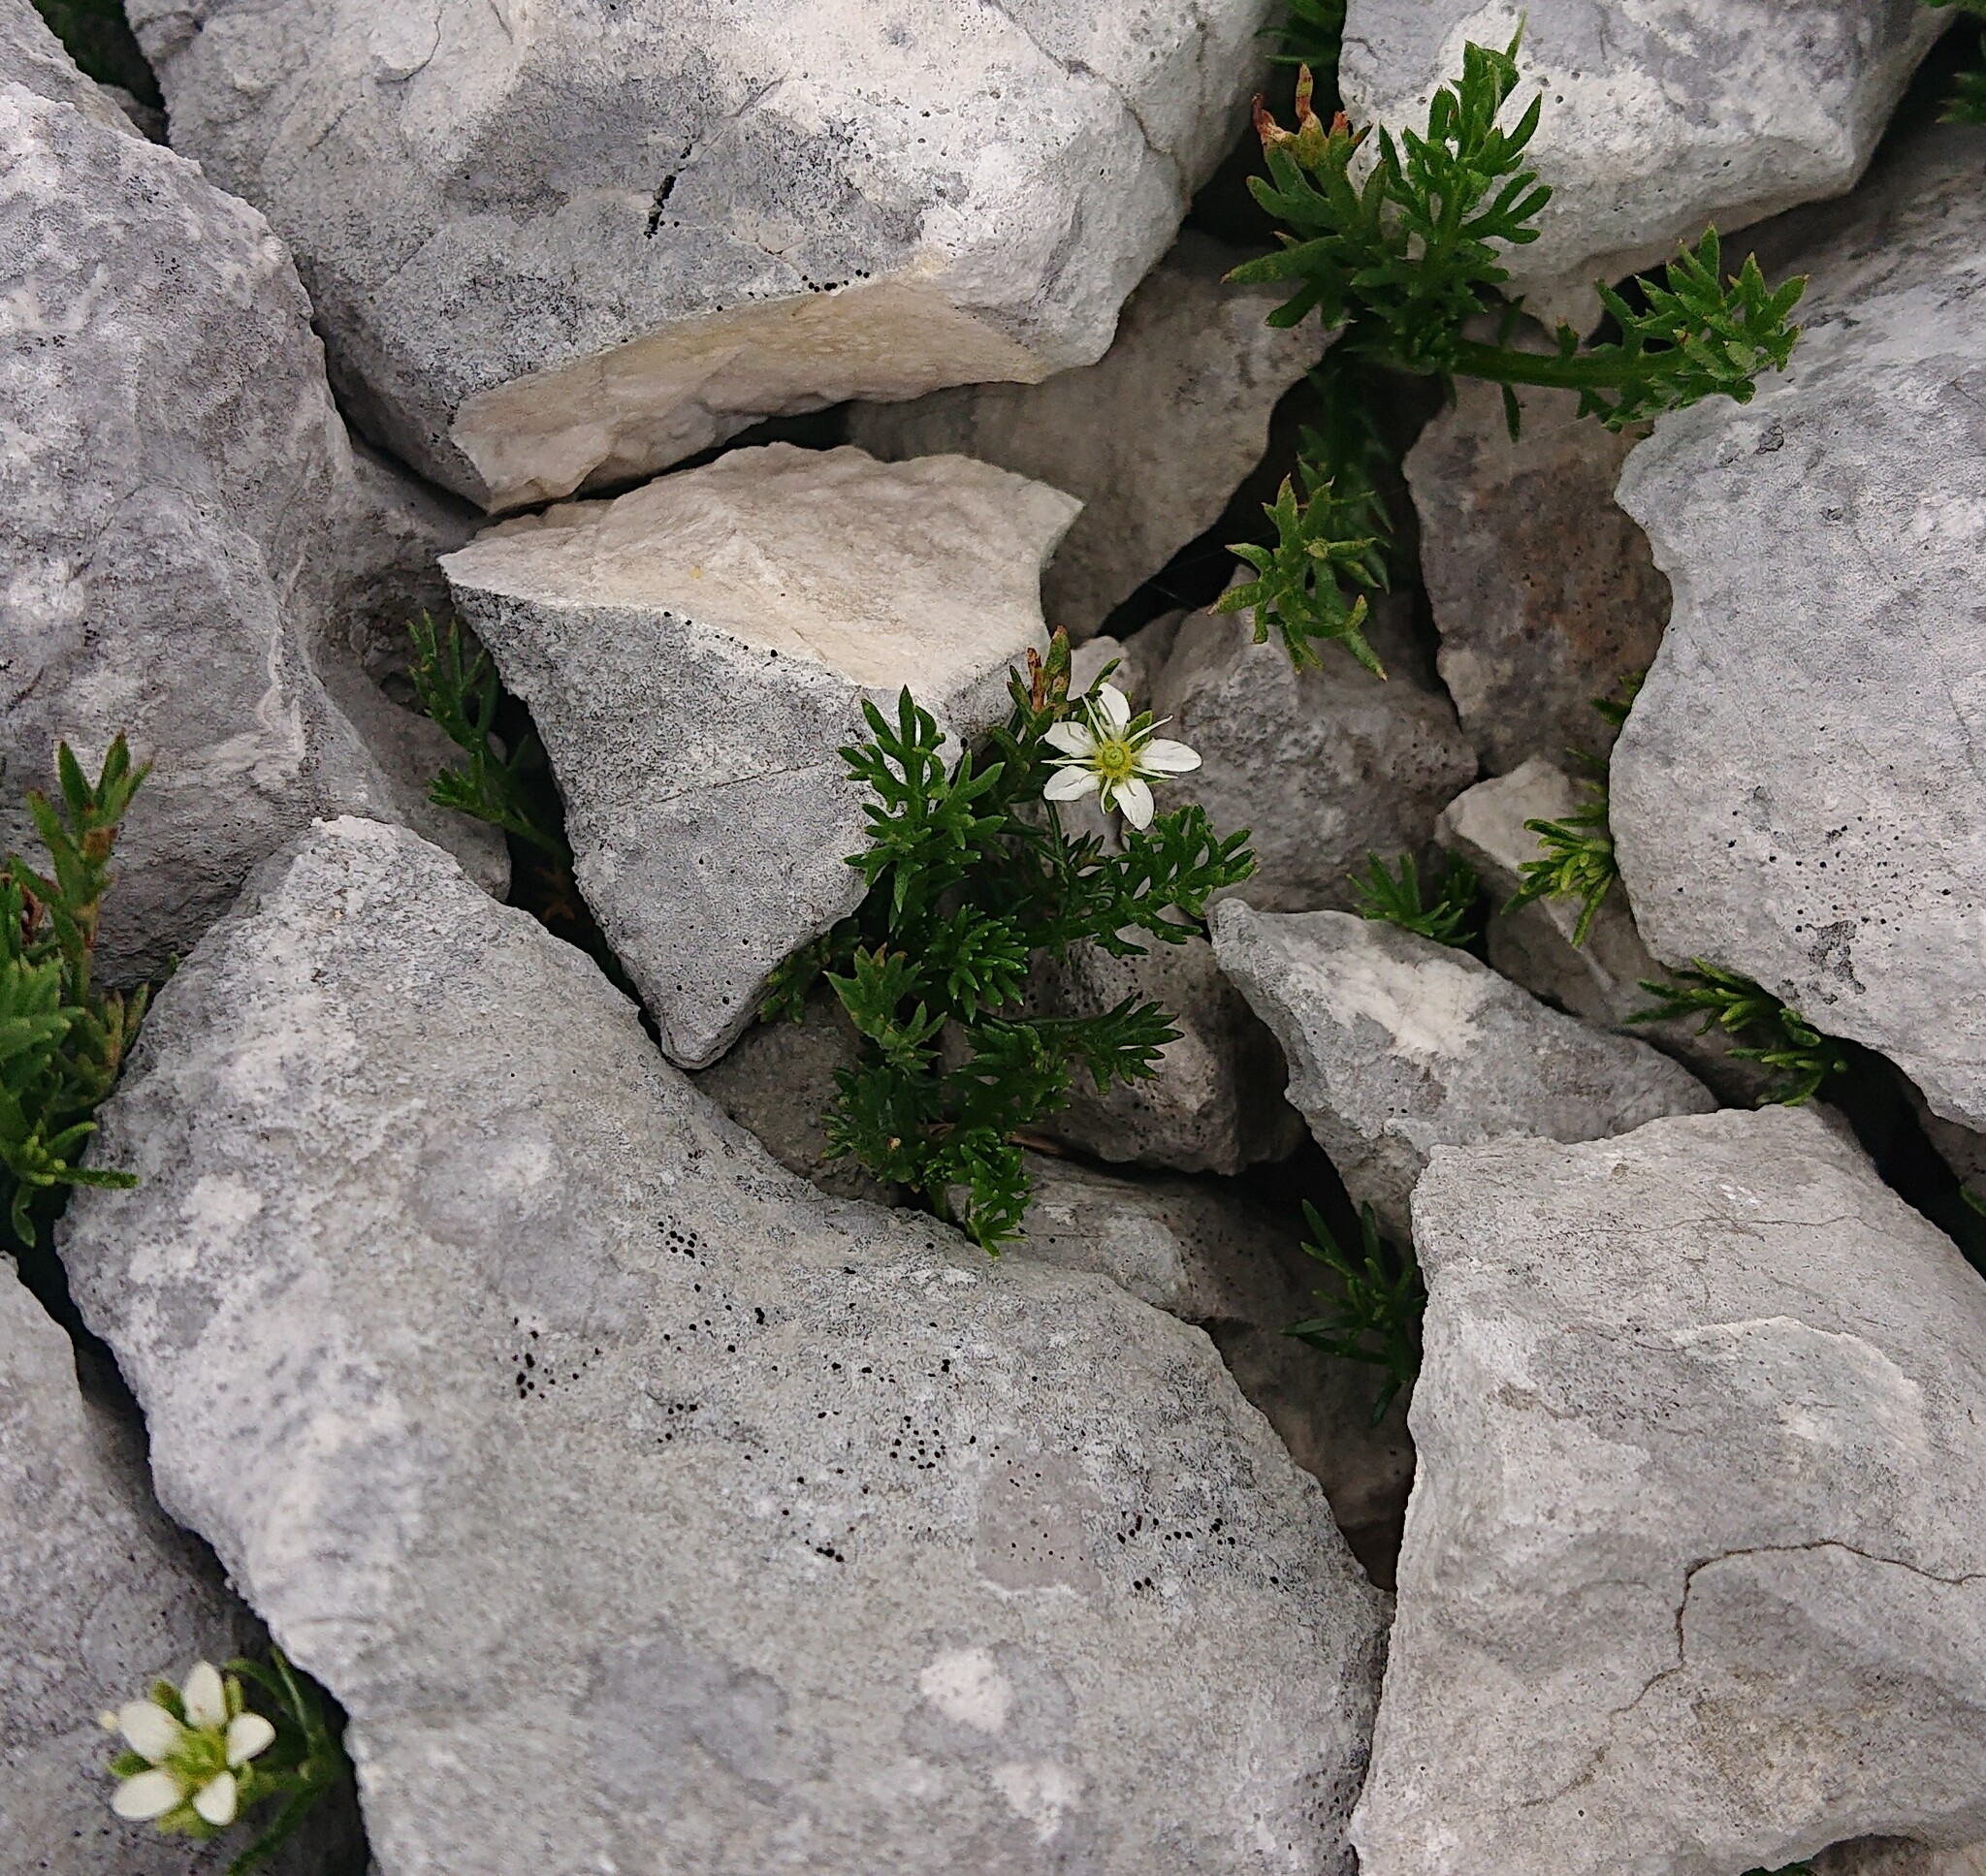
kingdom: Plantae
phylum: Tracheophyta
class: Magnoliopsida
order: Caryophyllales
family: Caryophyllaceae
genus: Moehringia
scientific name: Moehringia ciliata
